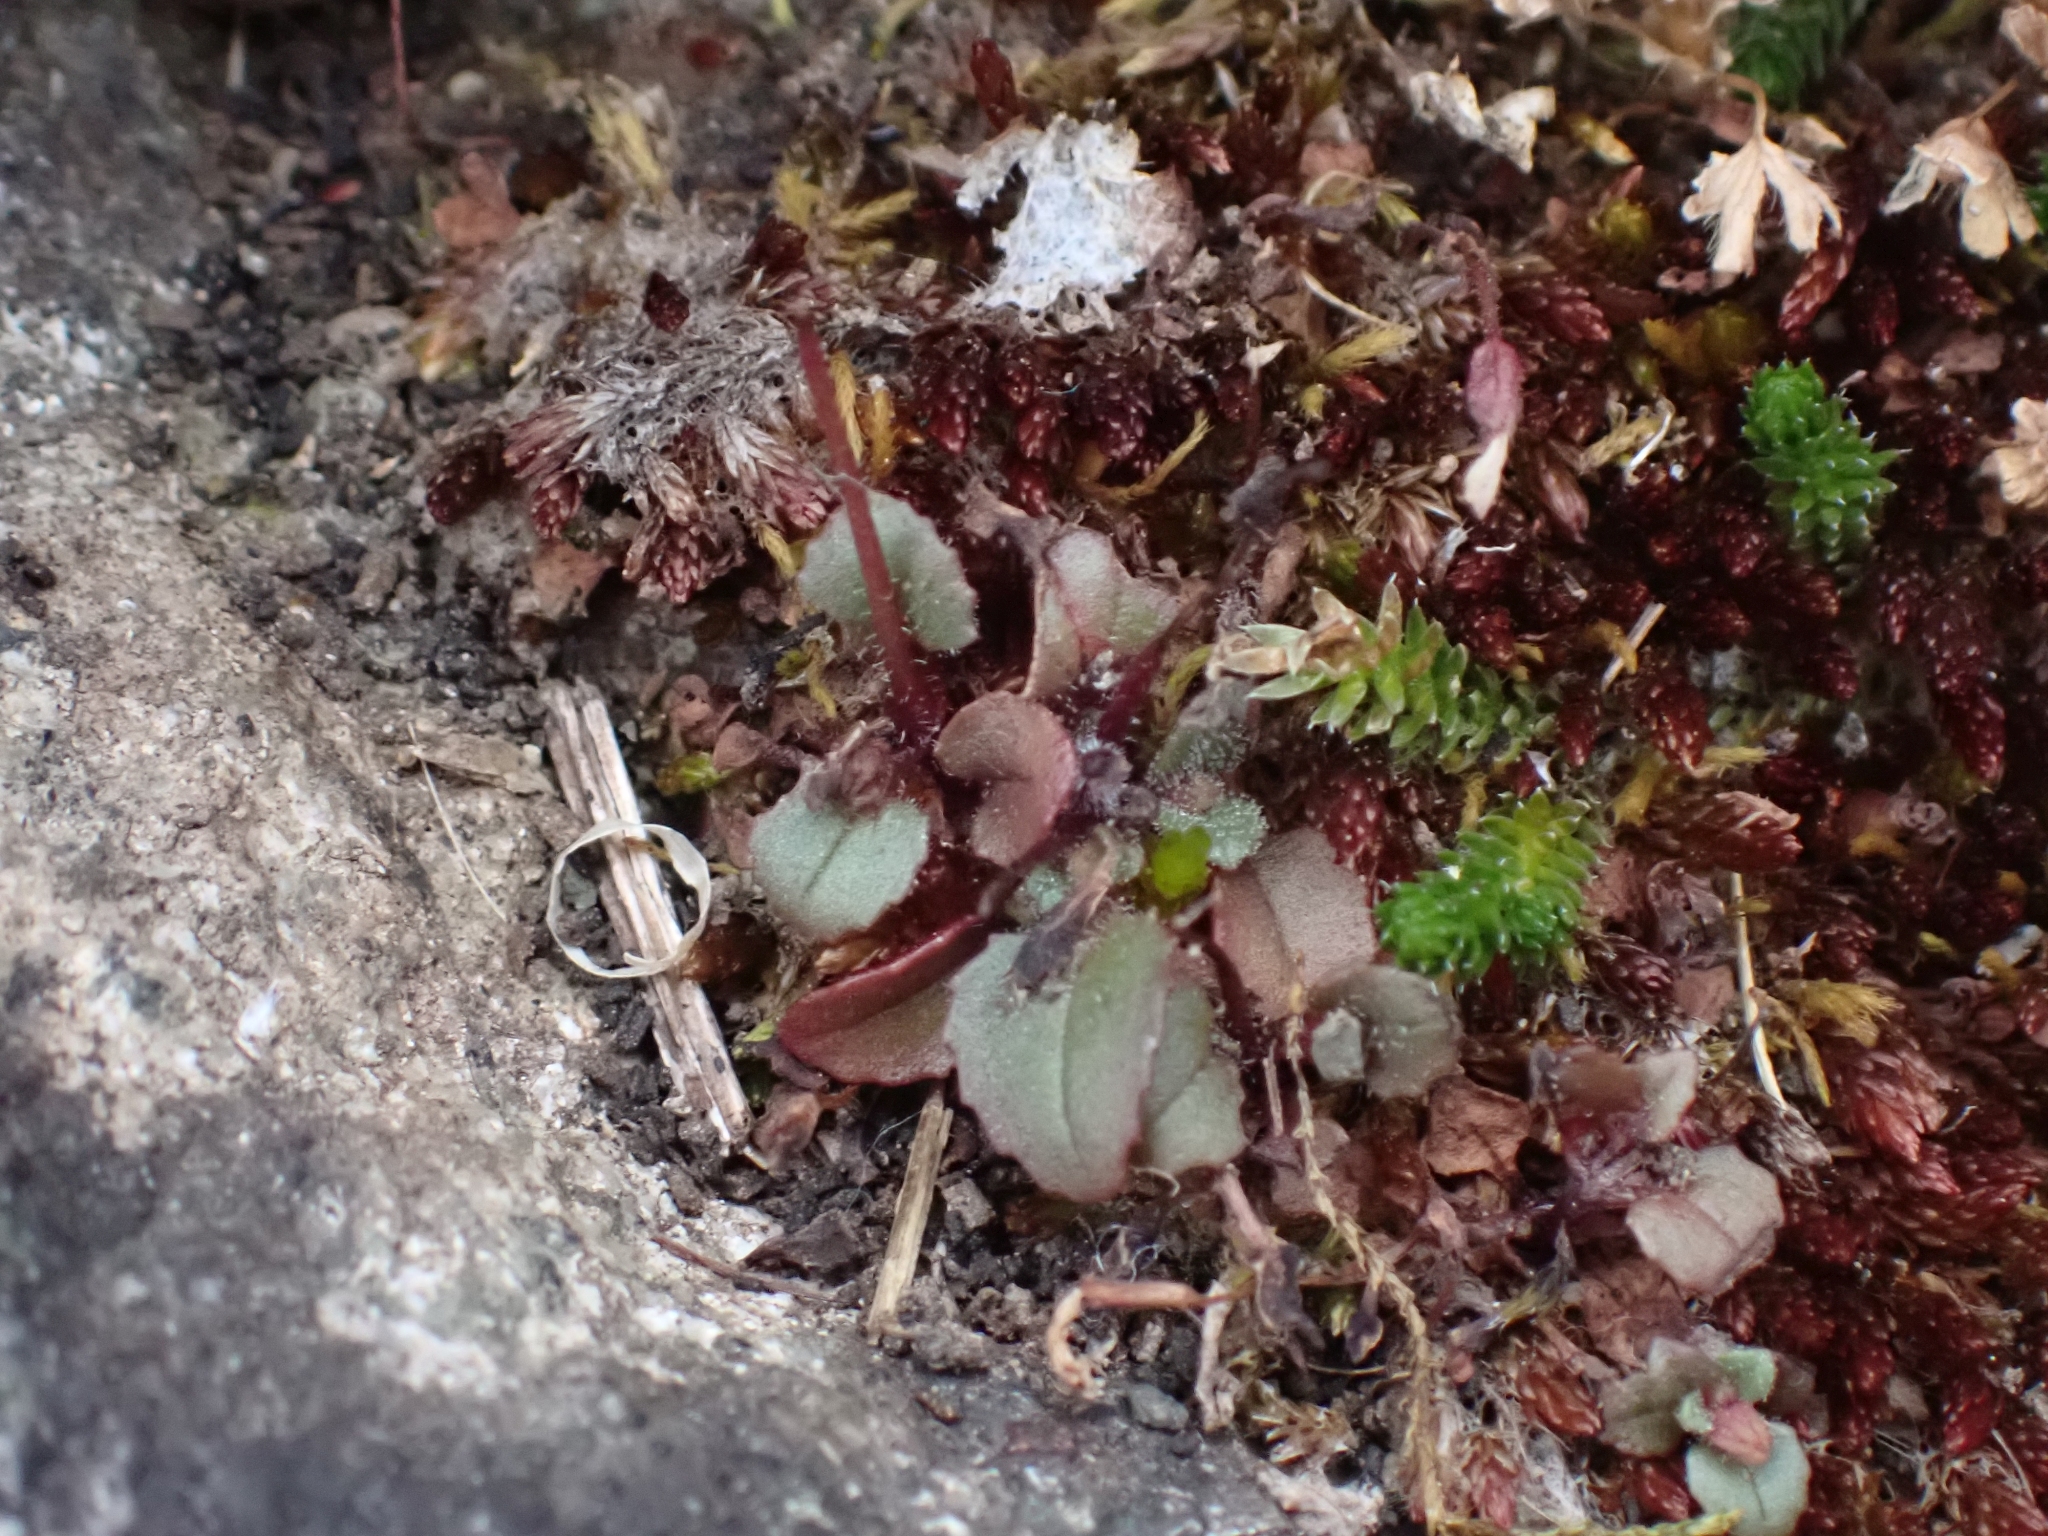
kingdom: Plantae
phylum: Tracheophyta
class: Magnoliopsida
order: Lamiales
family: Phrymaceae
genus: Erythranthe
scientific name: Erythranthe alsinoides
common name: Chickweed monkeyflower
